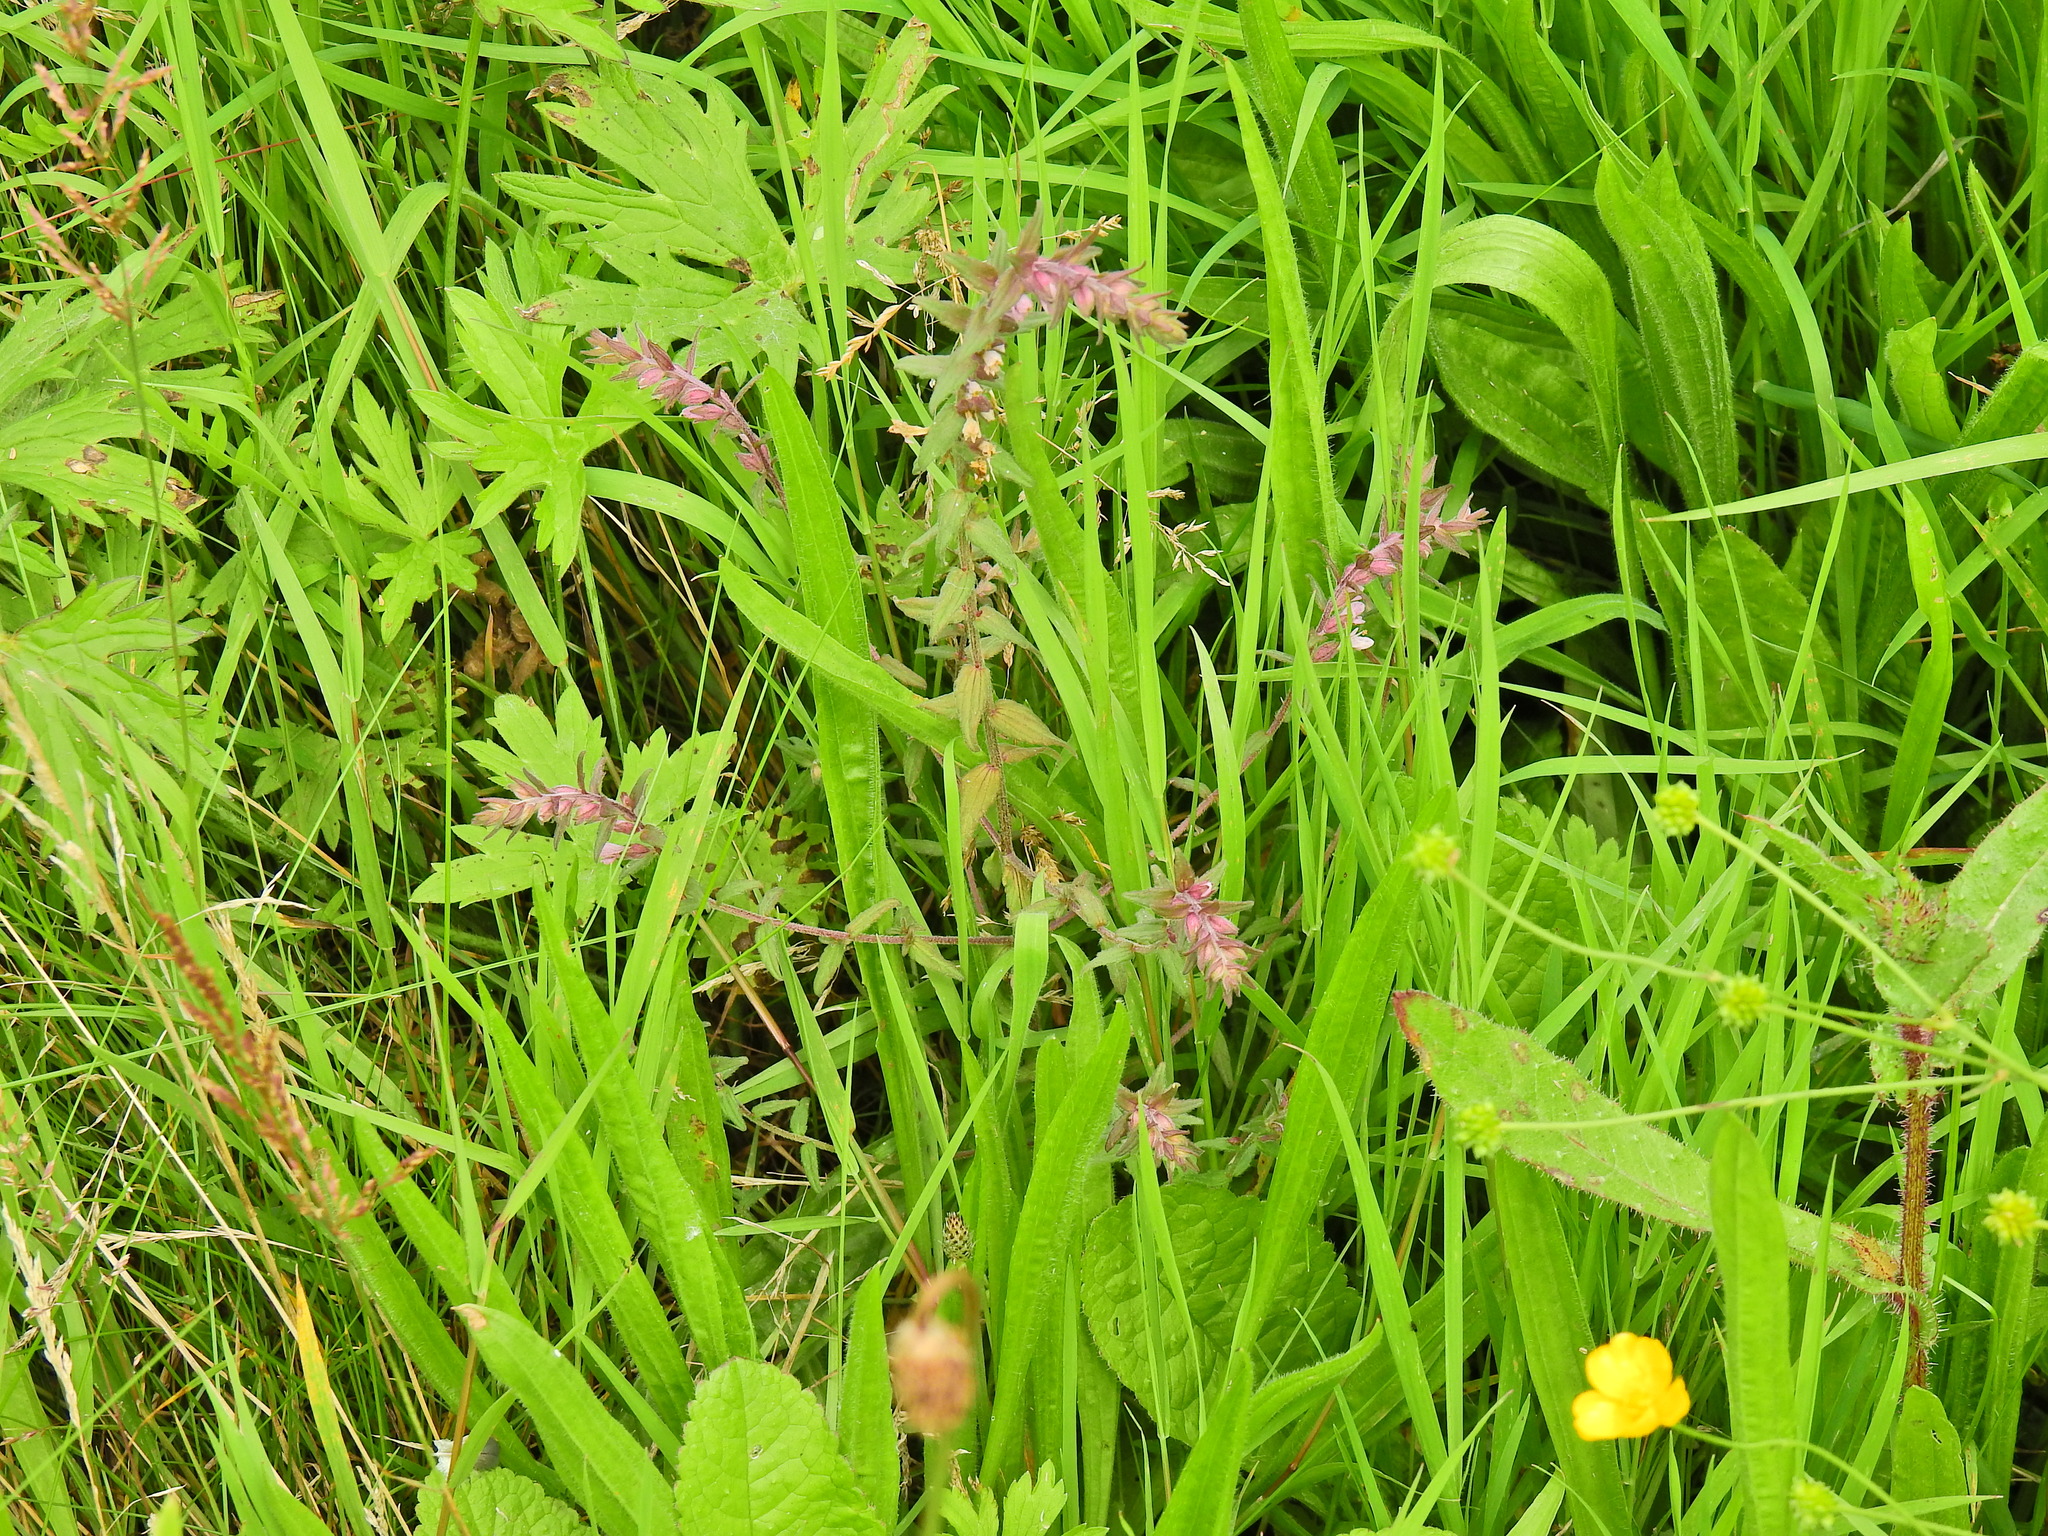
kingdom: Plantae
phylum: Tracheophyta
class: Magnoliopsida
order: Lamiales
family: Orobanchaceae
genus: Odontites
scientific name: Odontites vulgaris
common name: Broomrape
